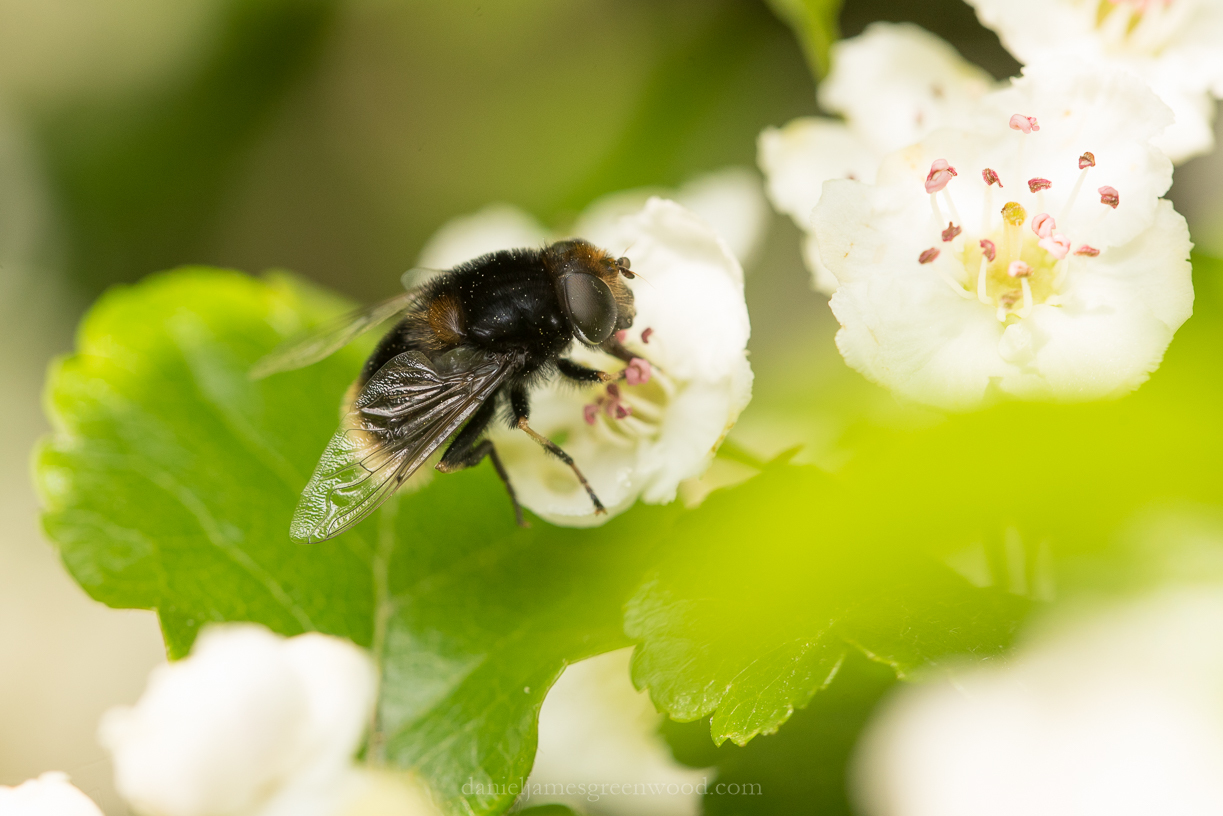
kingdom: Animalia
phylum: Arthropoda
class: Insecta
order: Diptera
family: Syrphidae
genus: Merodon
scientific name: Merodon equestris
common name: Greater bulb-fly
